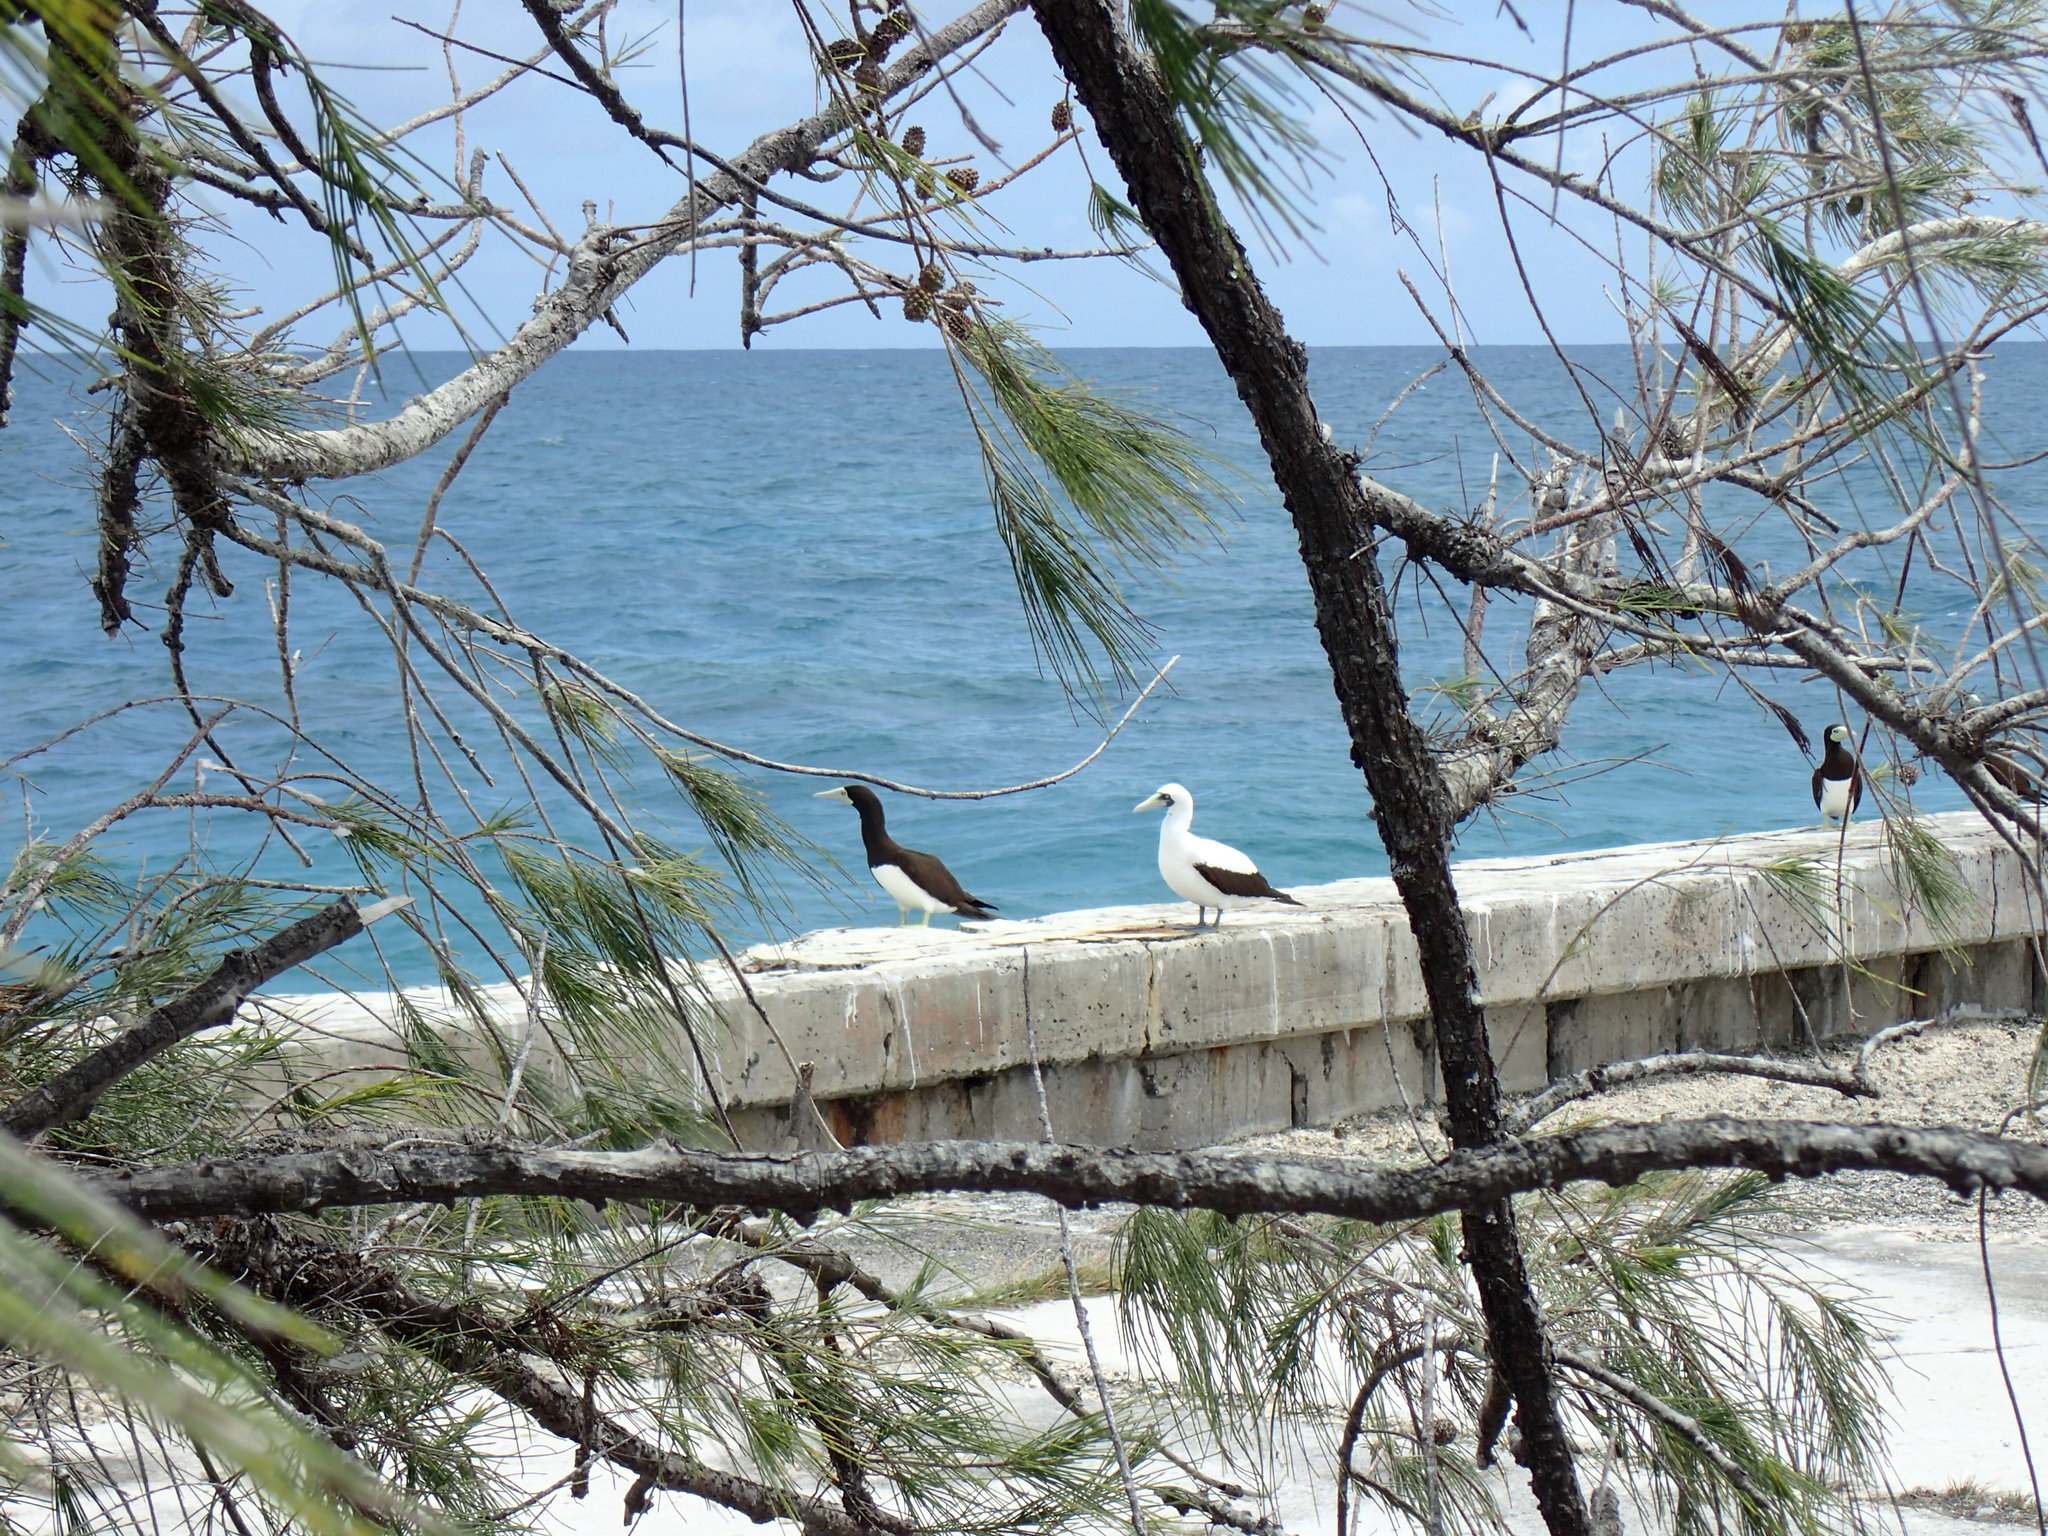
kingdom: Animalia
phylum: Chordata
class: Aves
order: Suliformes
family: Sulidae
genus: Sula
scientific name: Sula dactylatra
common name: Masked booby
